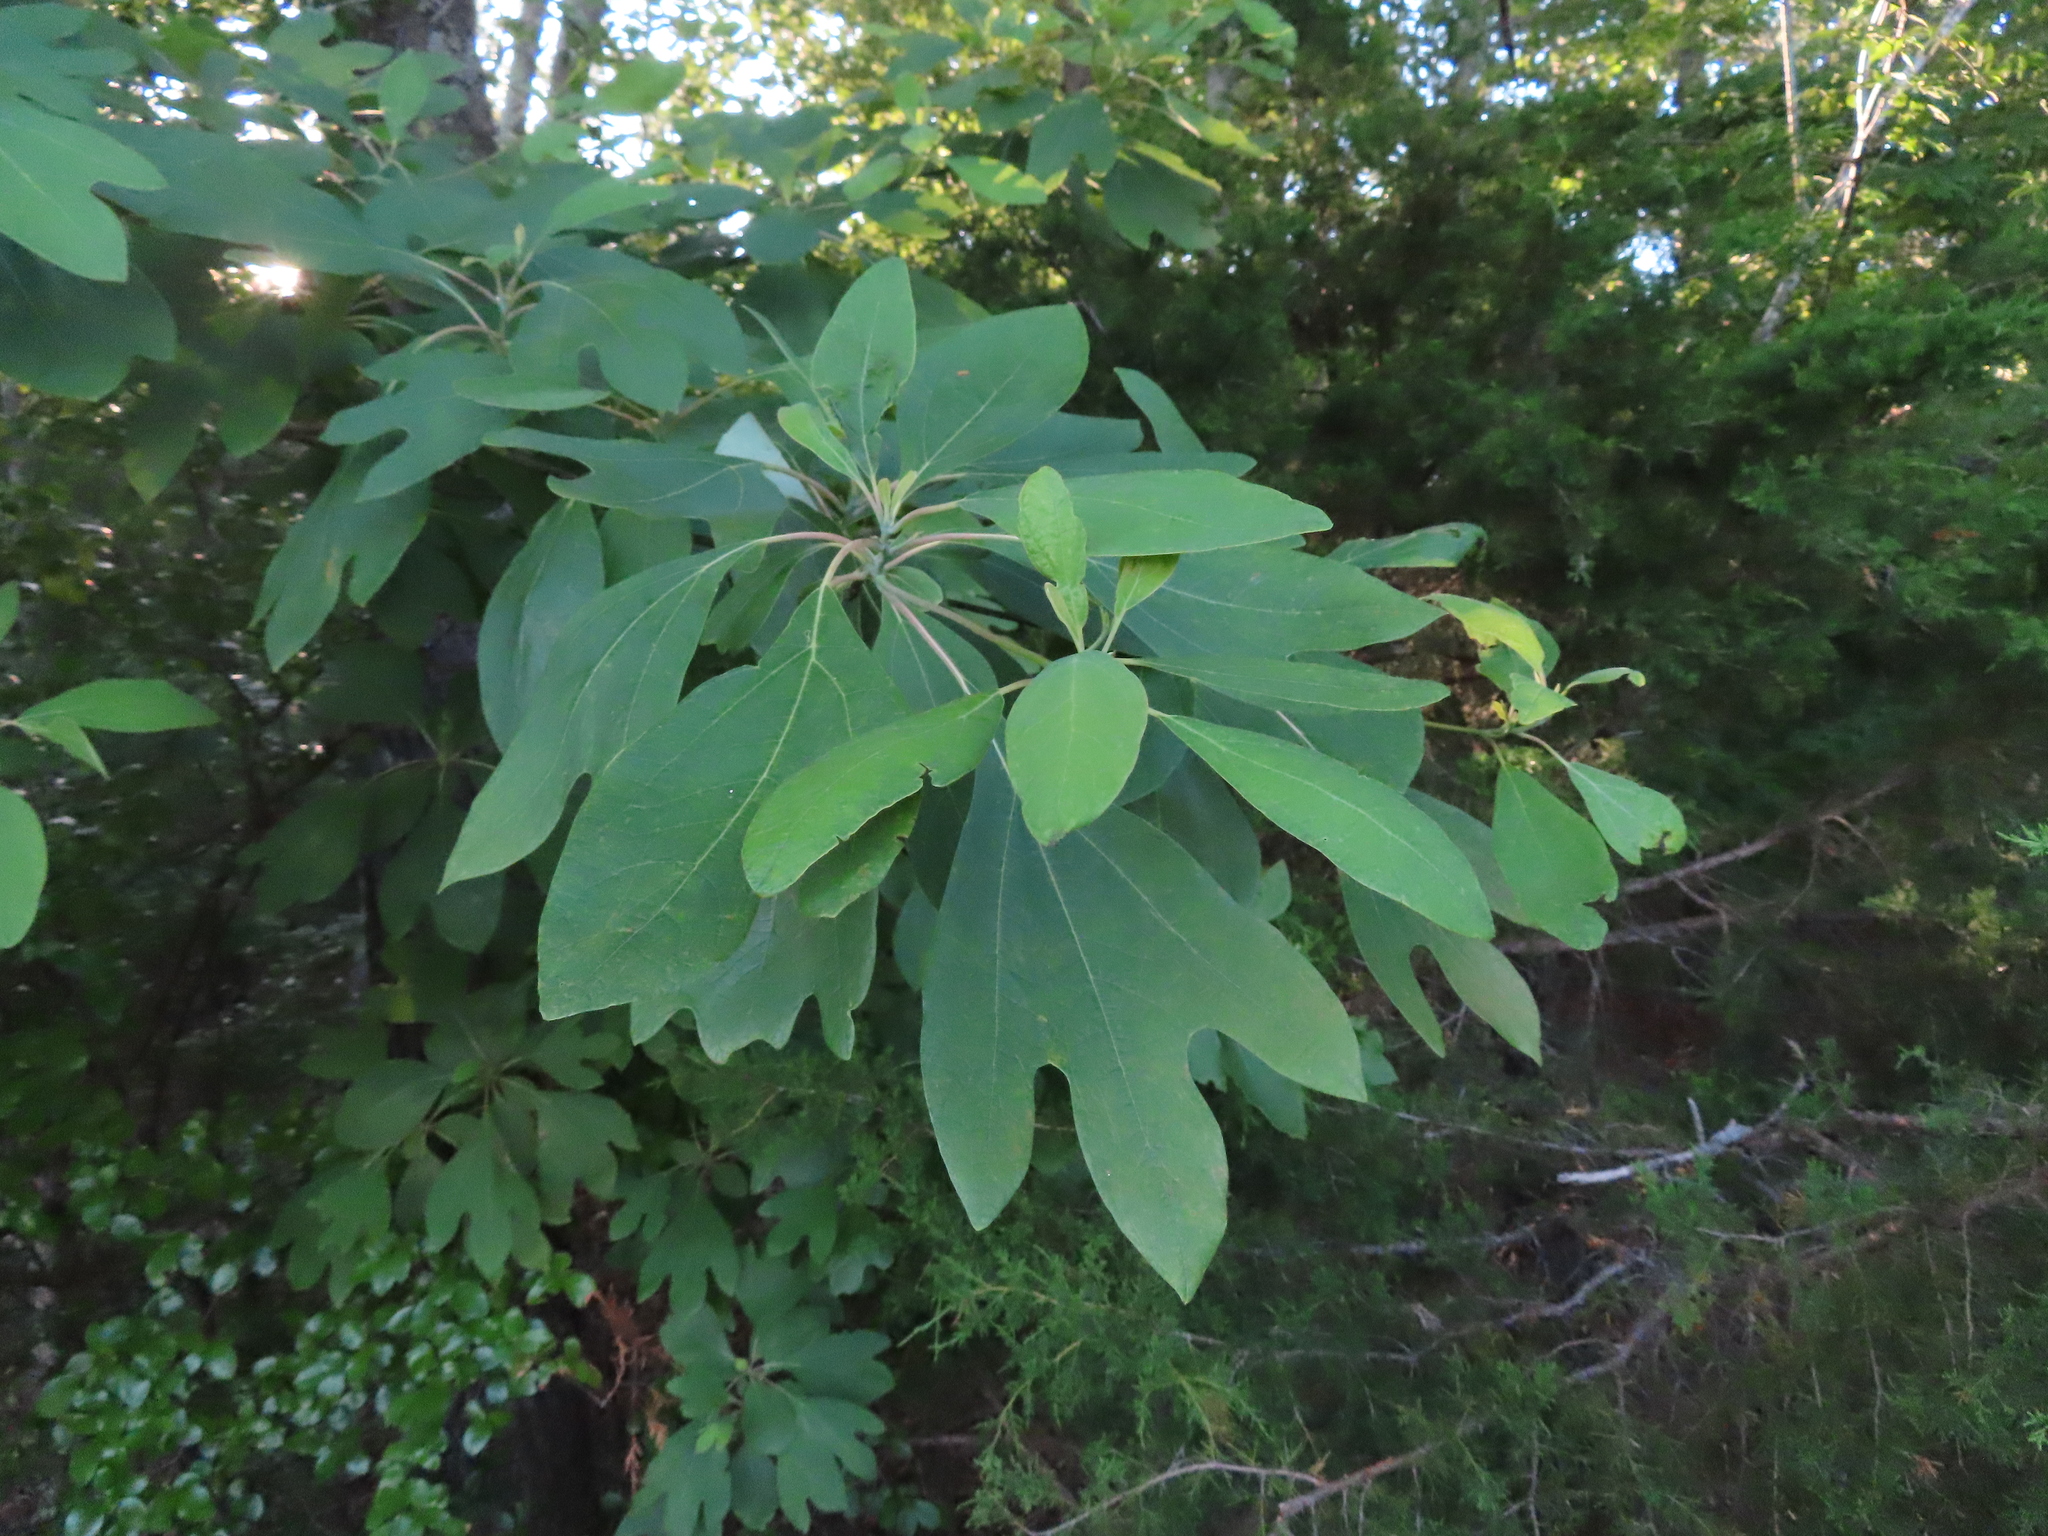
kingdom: Plantae
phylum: Tracheophyta
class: Magnoliopsida
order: Laurales
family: Lauraceae
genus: Sassafras
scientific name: Sassafras albidum
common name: Sassafras
